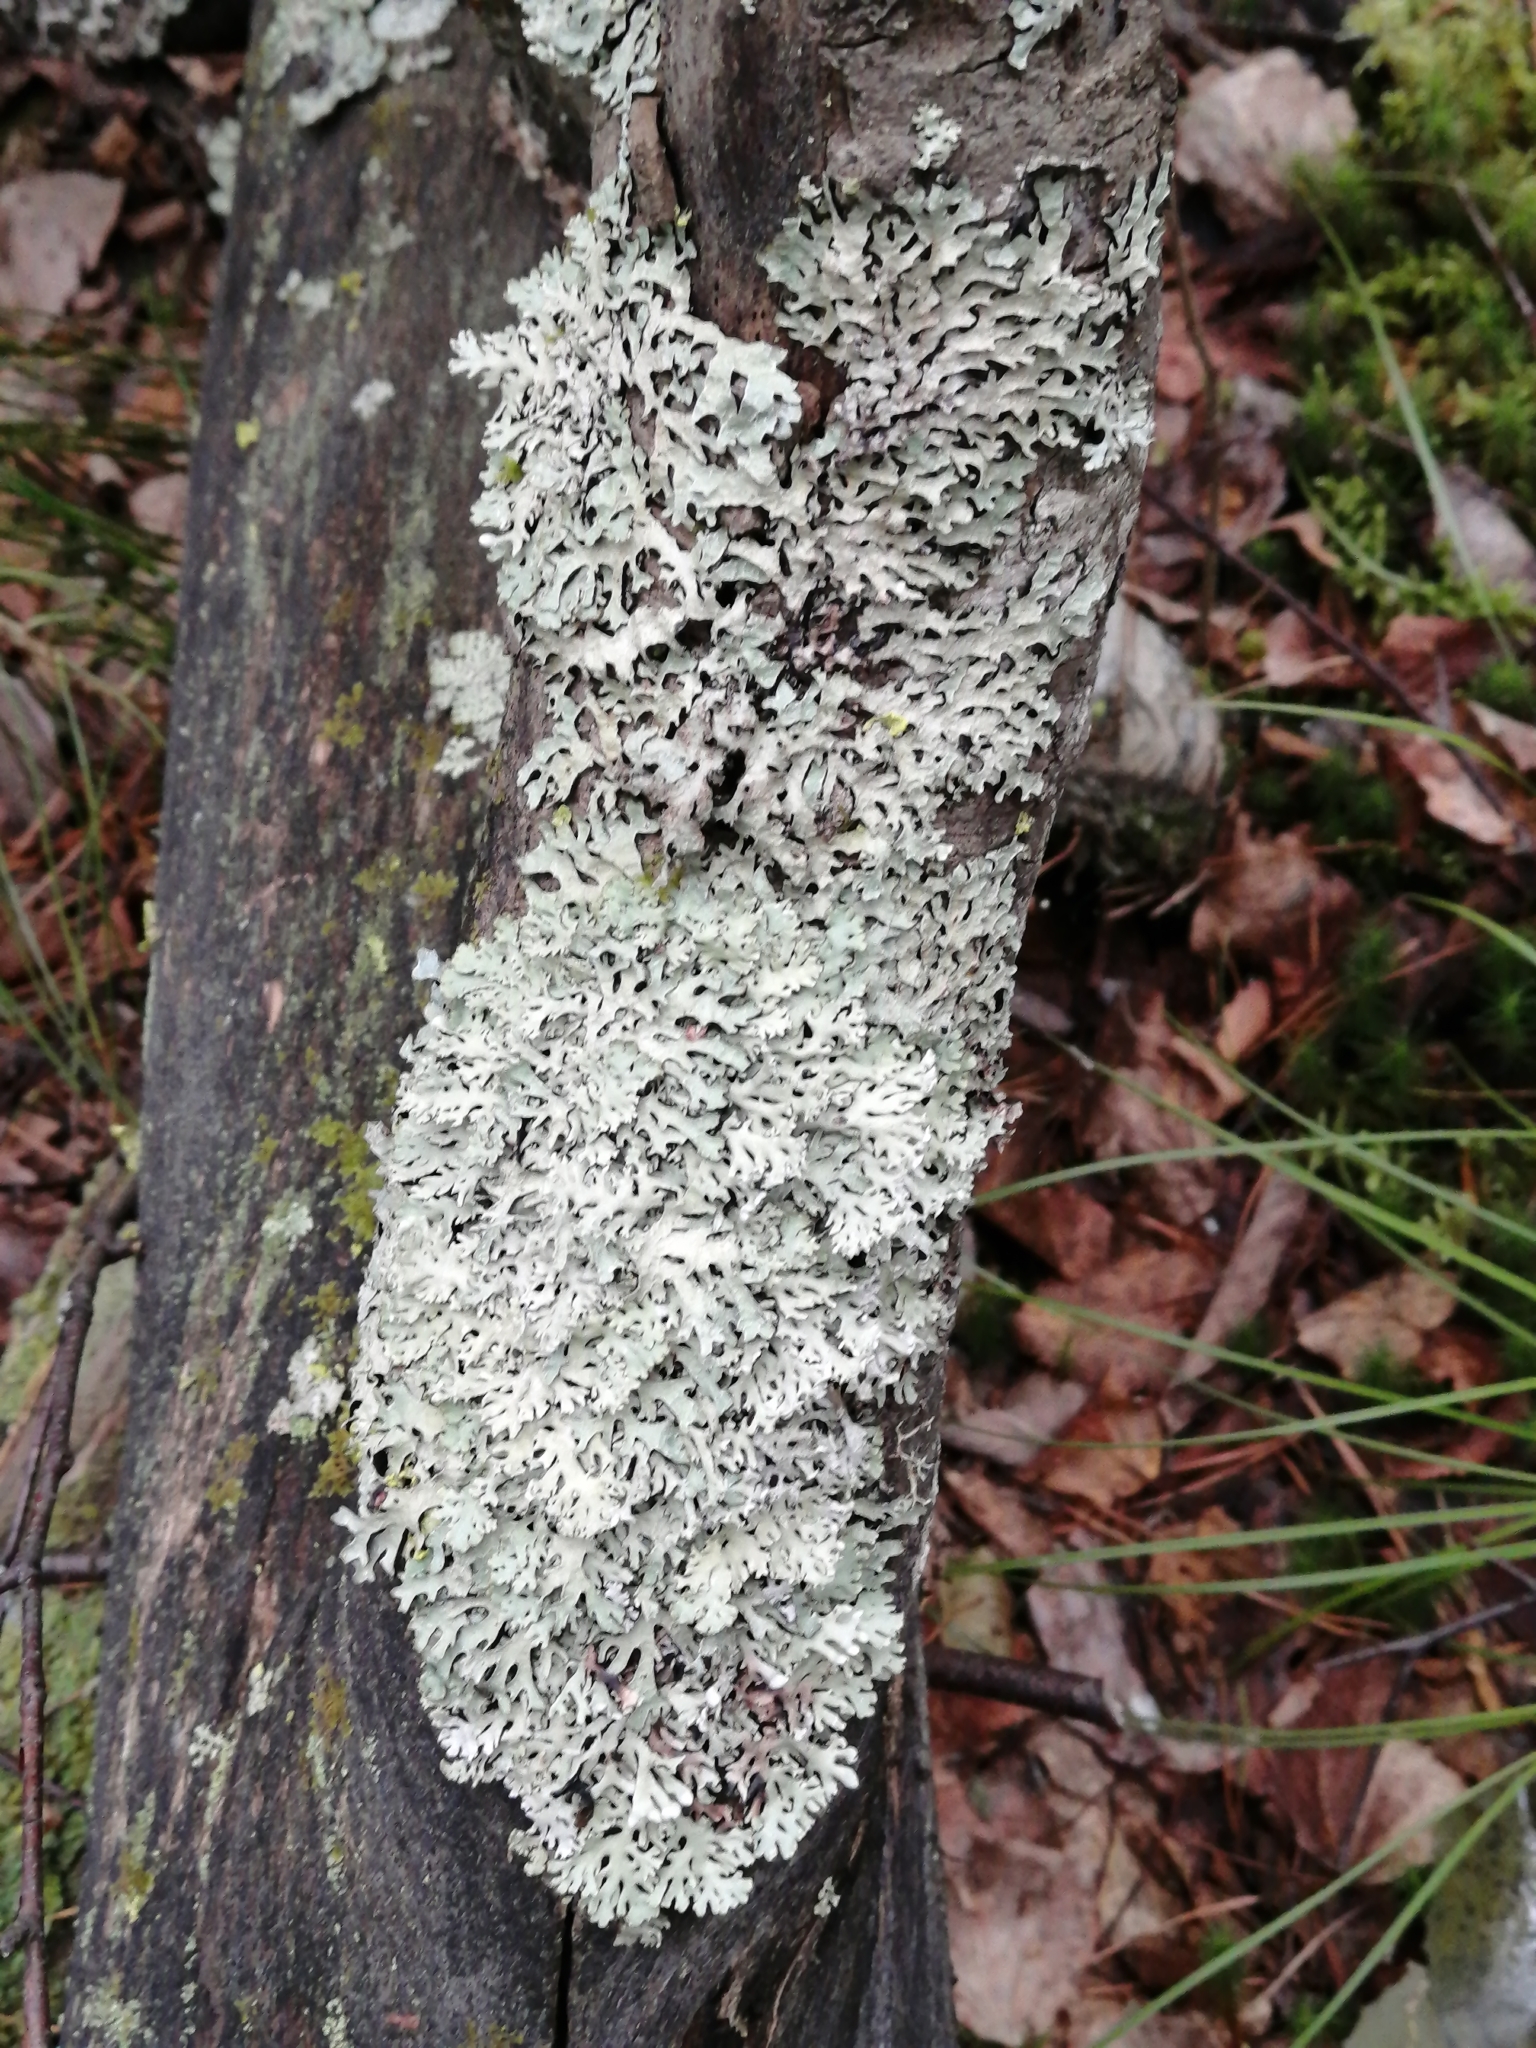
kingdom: Fungi
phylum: Ascomycota
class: Lecanoromycetes
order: Lecanorales
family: Parmeliaceae
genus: Parmelia
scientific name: Parmelia sulcata
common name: Netted shield lichen
